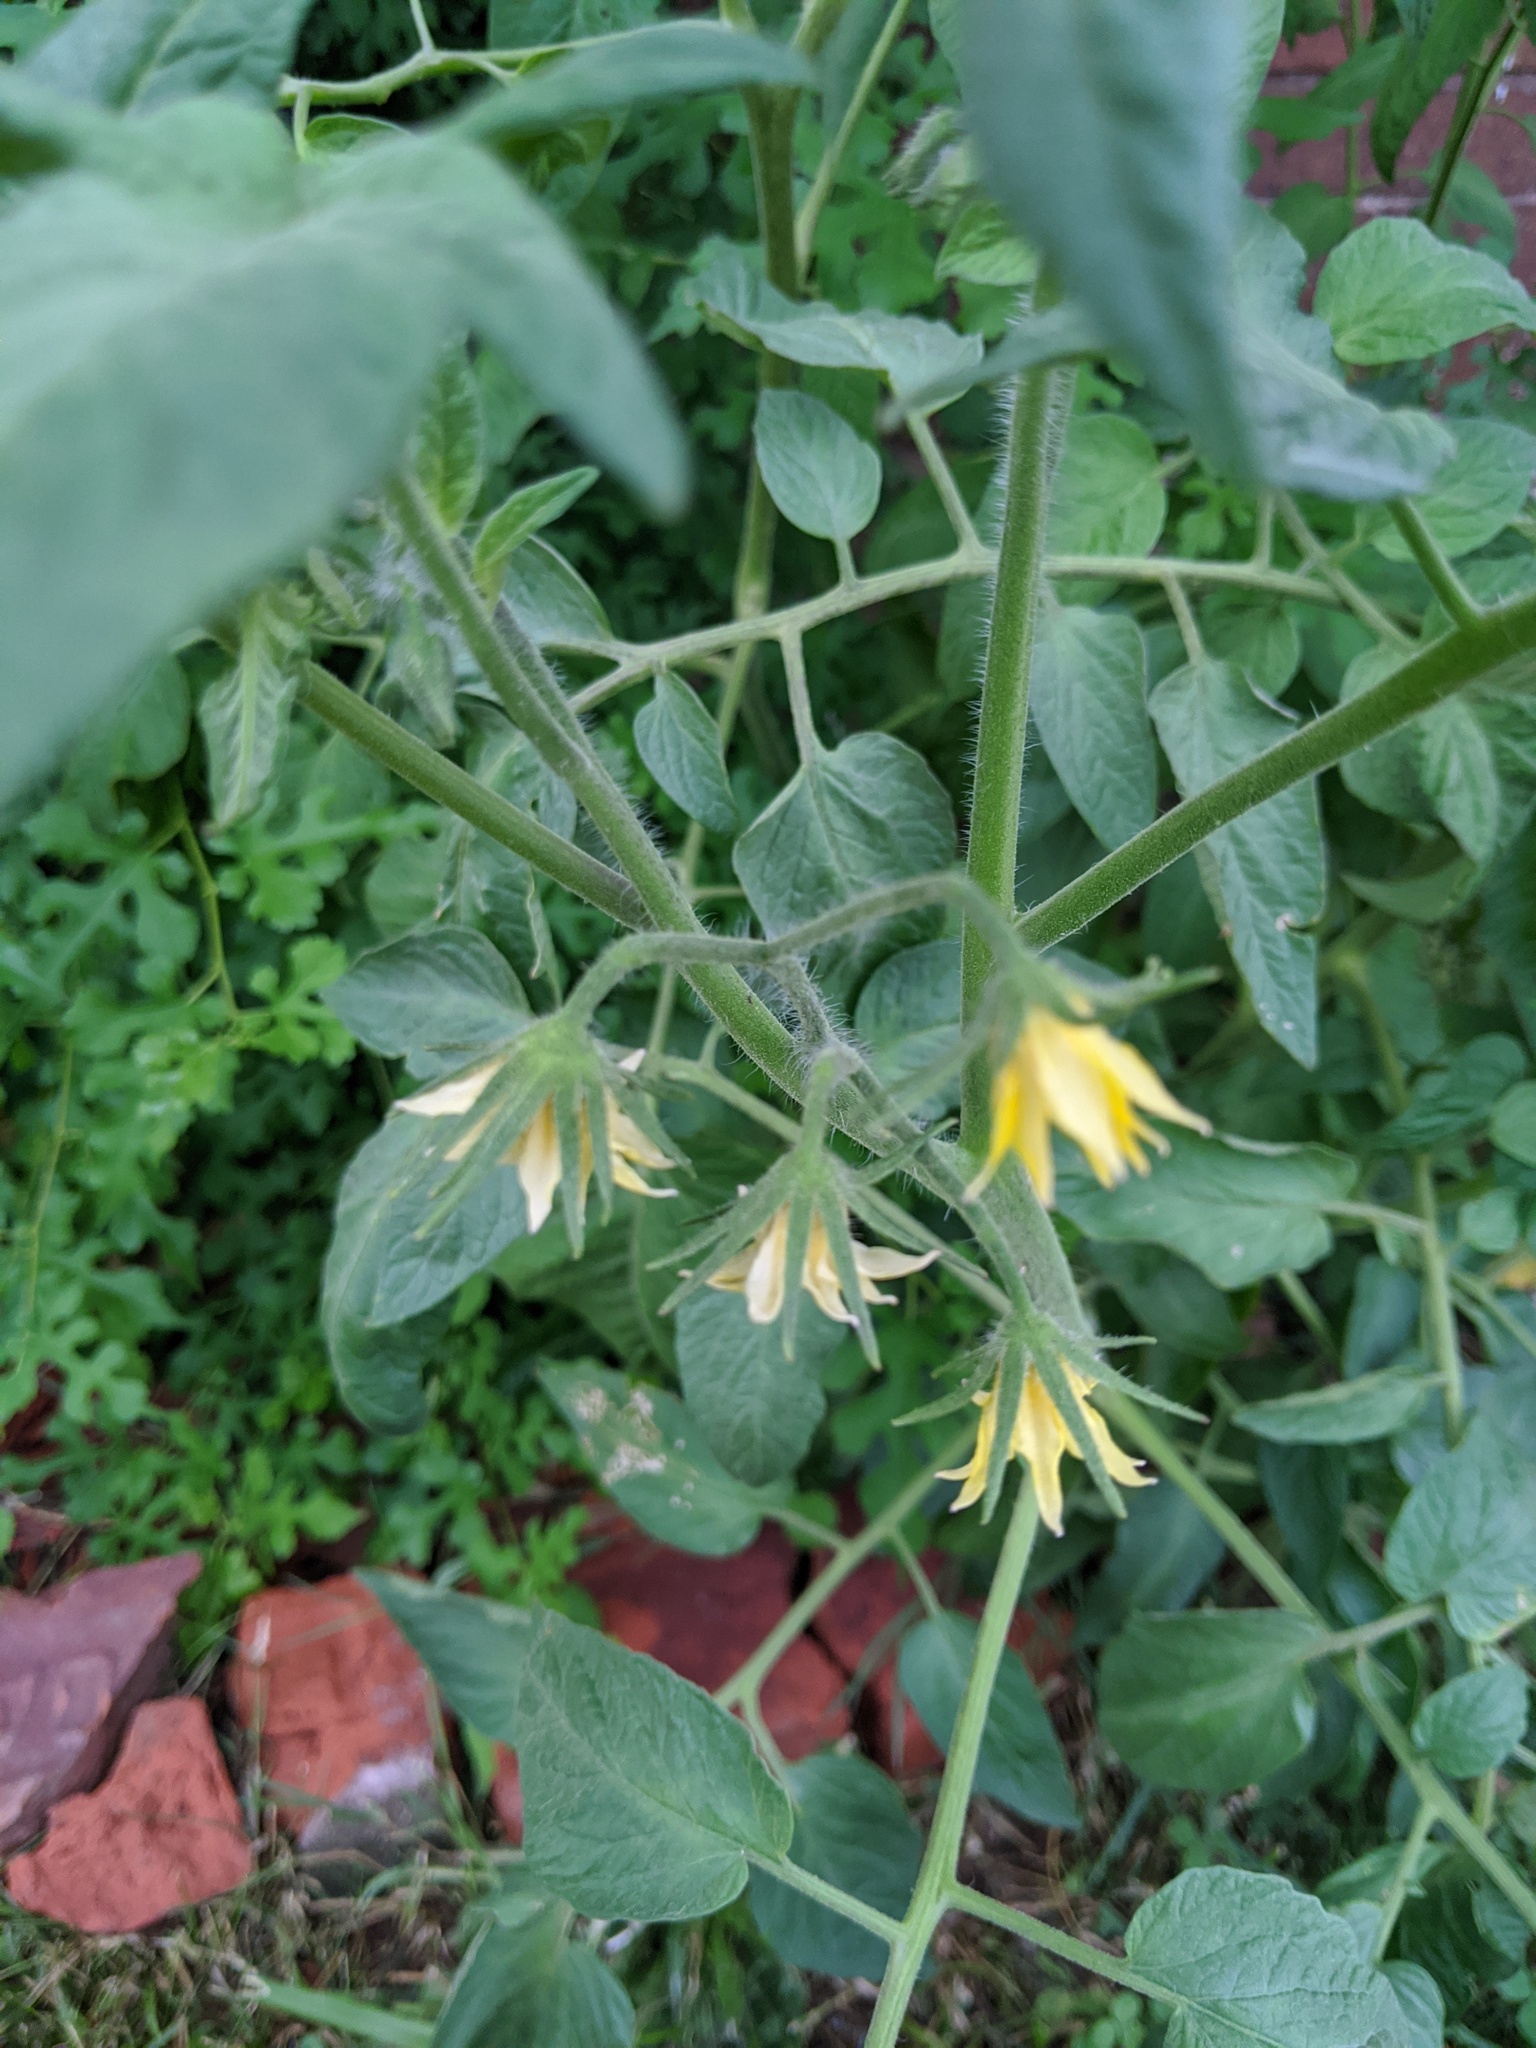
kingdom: Plantae
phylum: Tracheophyta
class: Magnoliopsida
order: Solanales
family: Solanaceae
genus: Solanum
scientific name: Solanum lycopersicum
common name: Garden tomato
